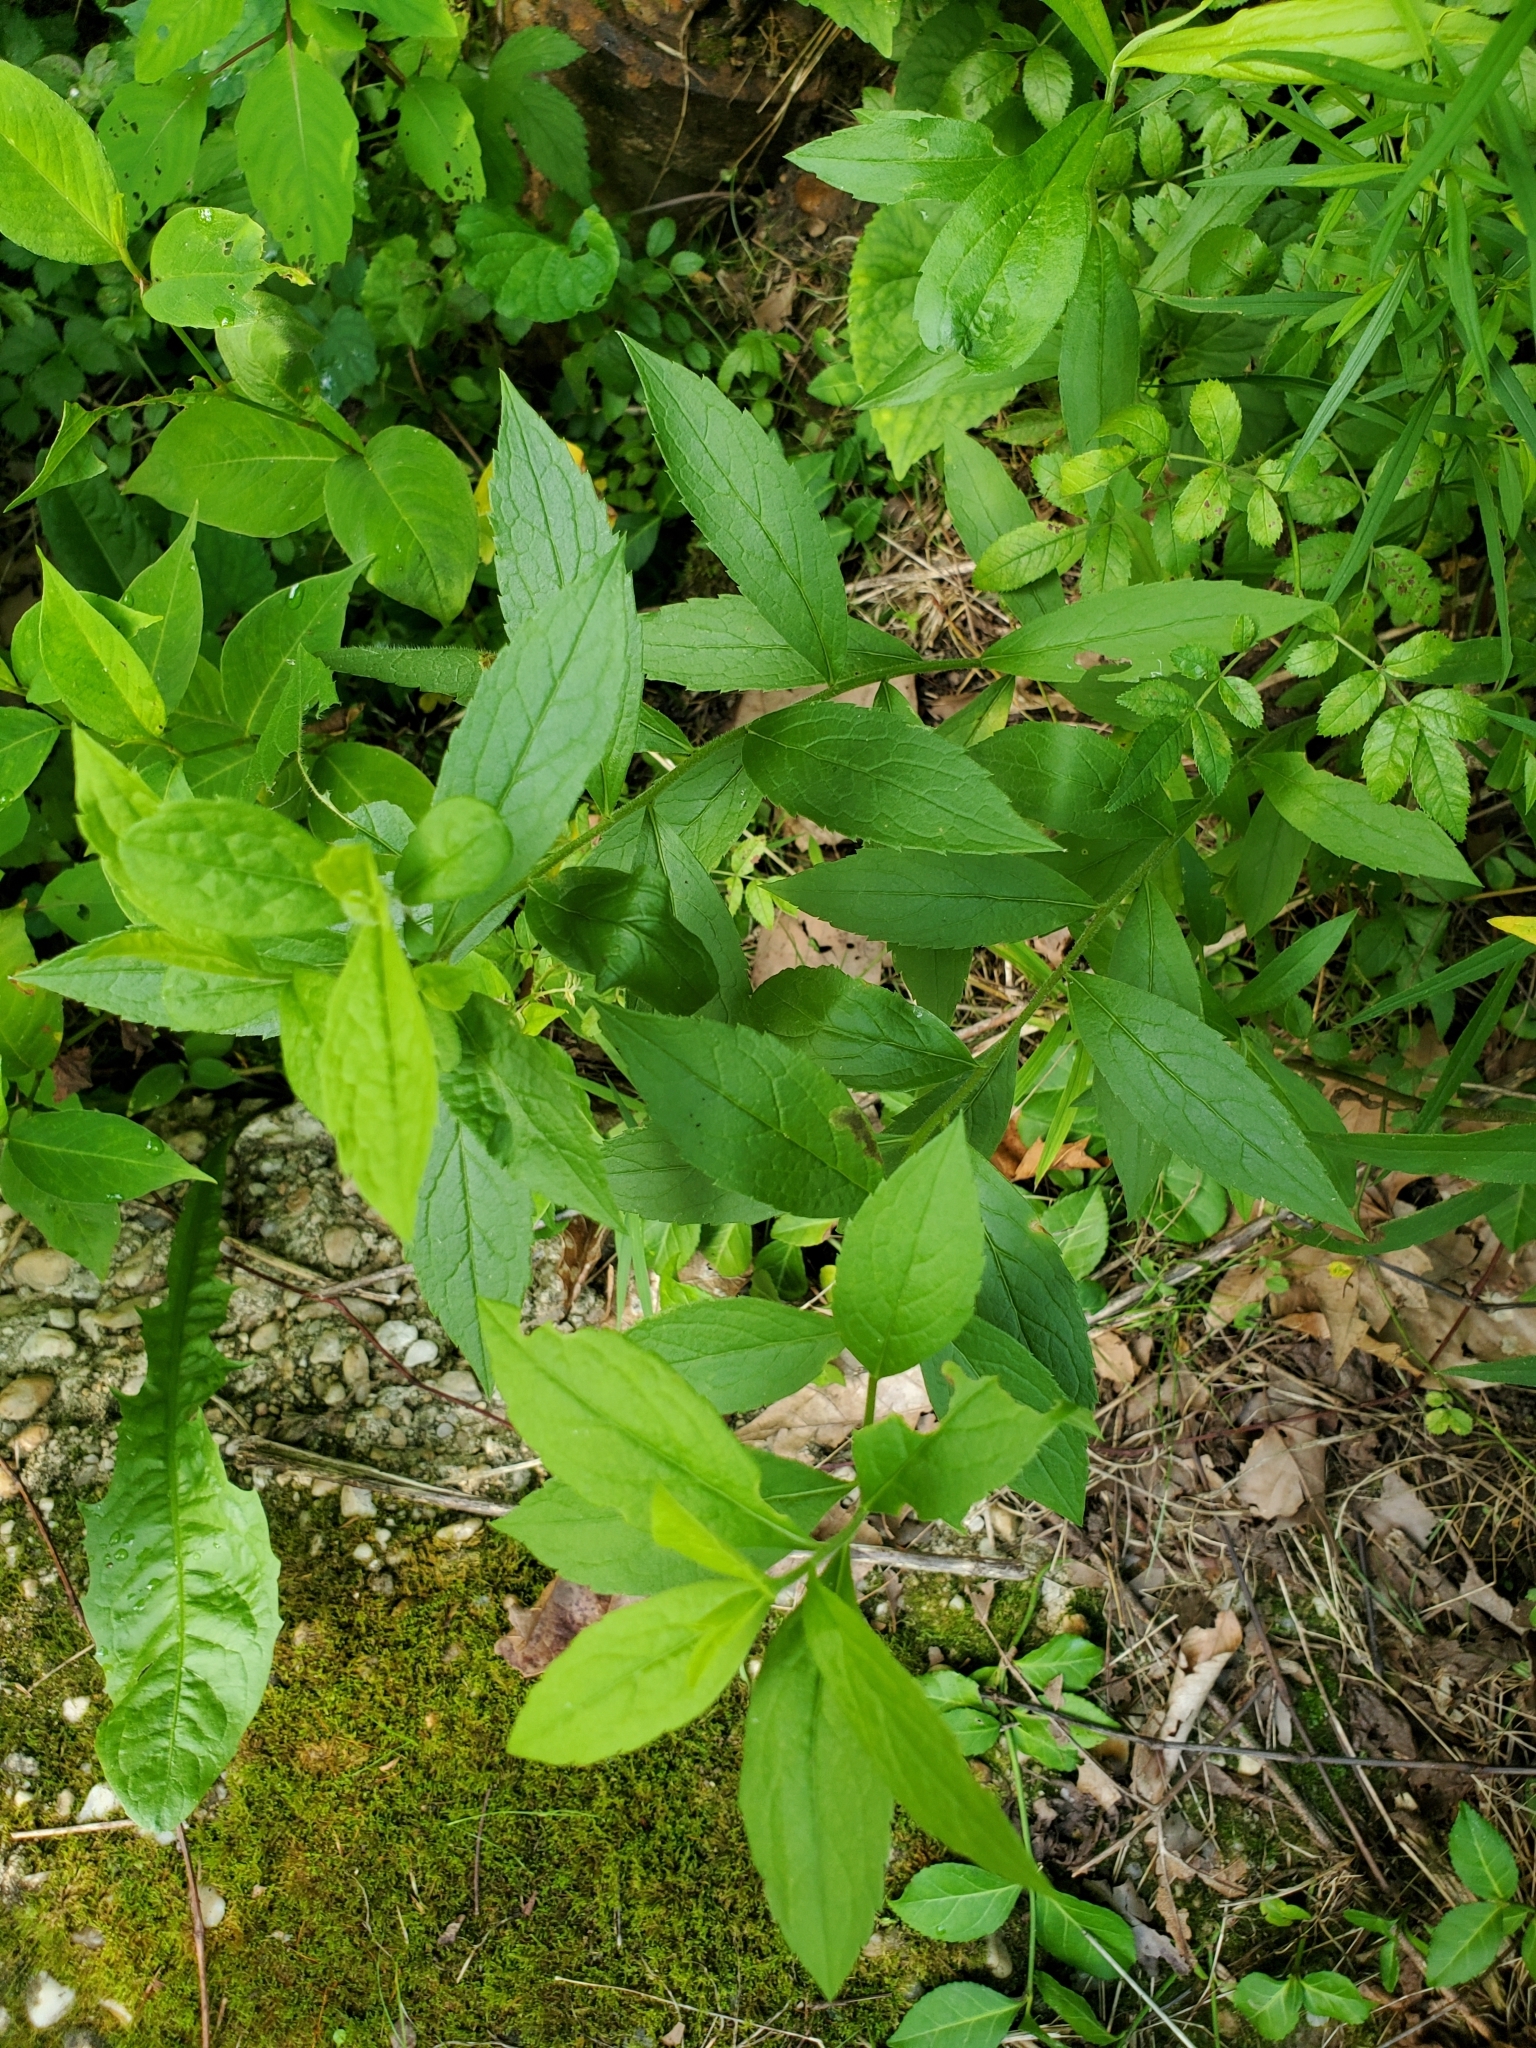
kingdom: Plantae
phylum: Tracheophyta
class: Magnoliopsida
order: Asterales
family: Asteraceae
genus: Solidago
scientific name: Solidago rugosa
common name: Rough-stemmed goldenrod
